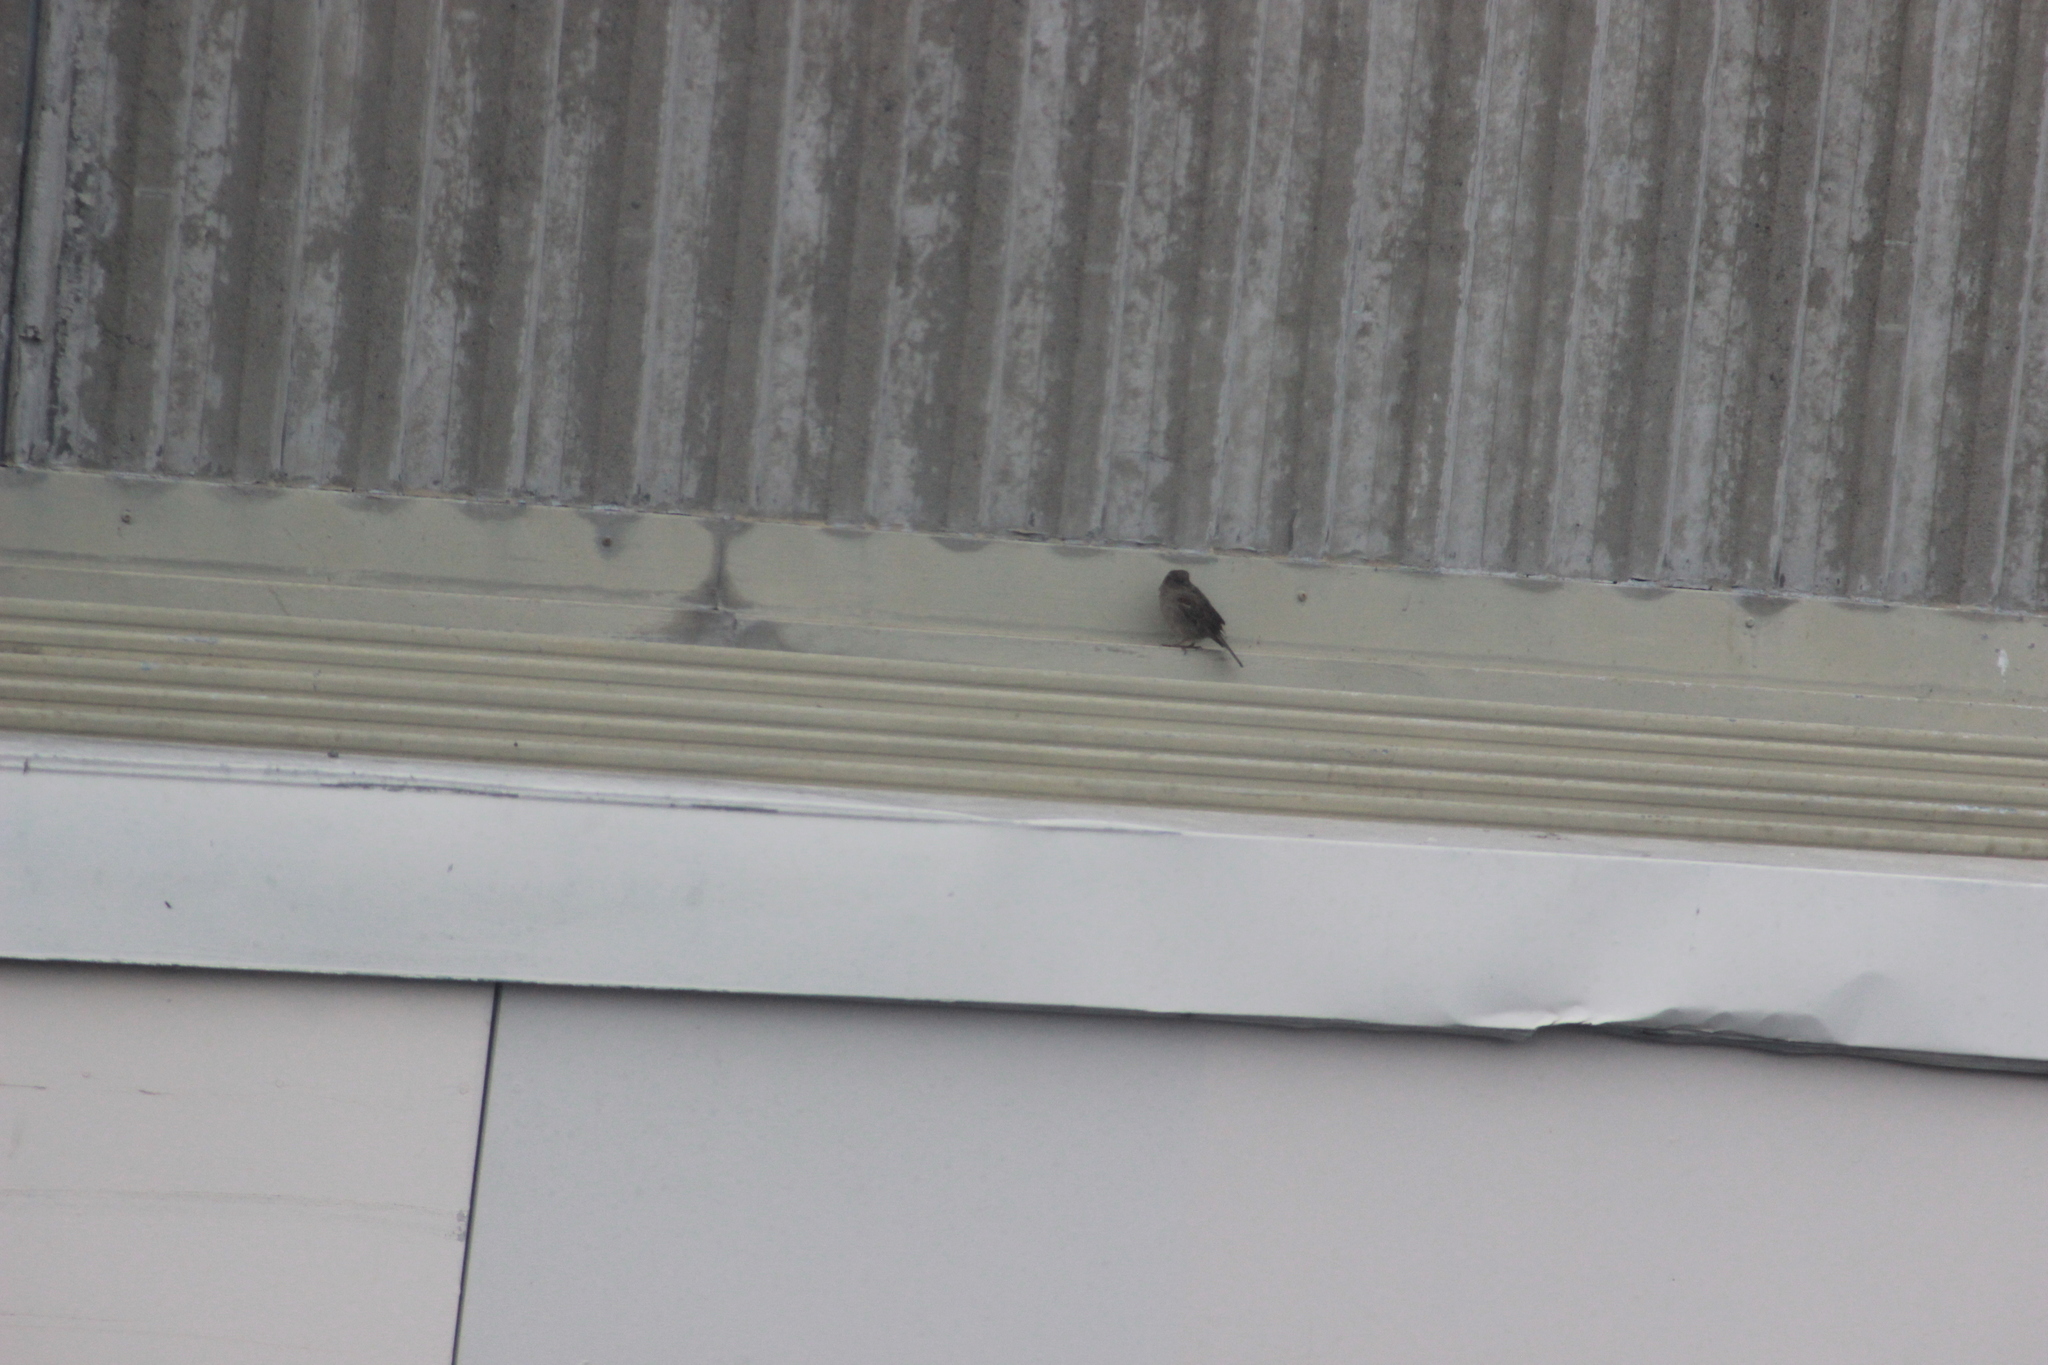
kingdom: Animalia
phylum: Chordata
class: Aves
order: Passeriformes
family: Passeridae
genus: Passer
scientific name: Passer domesticus
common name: House sparrow
